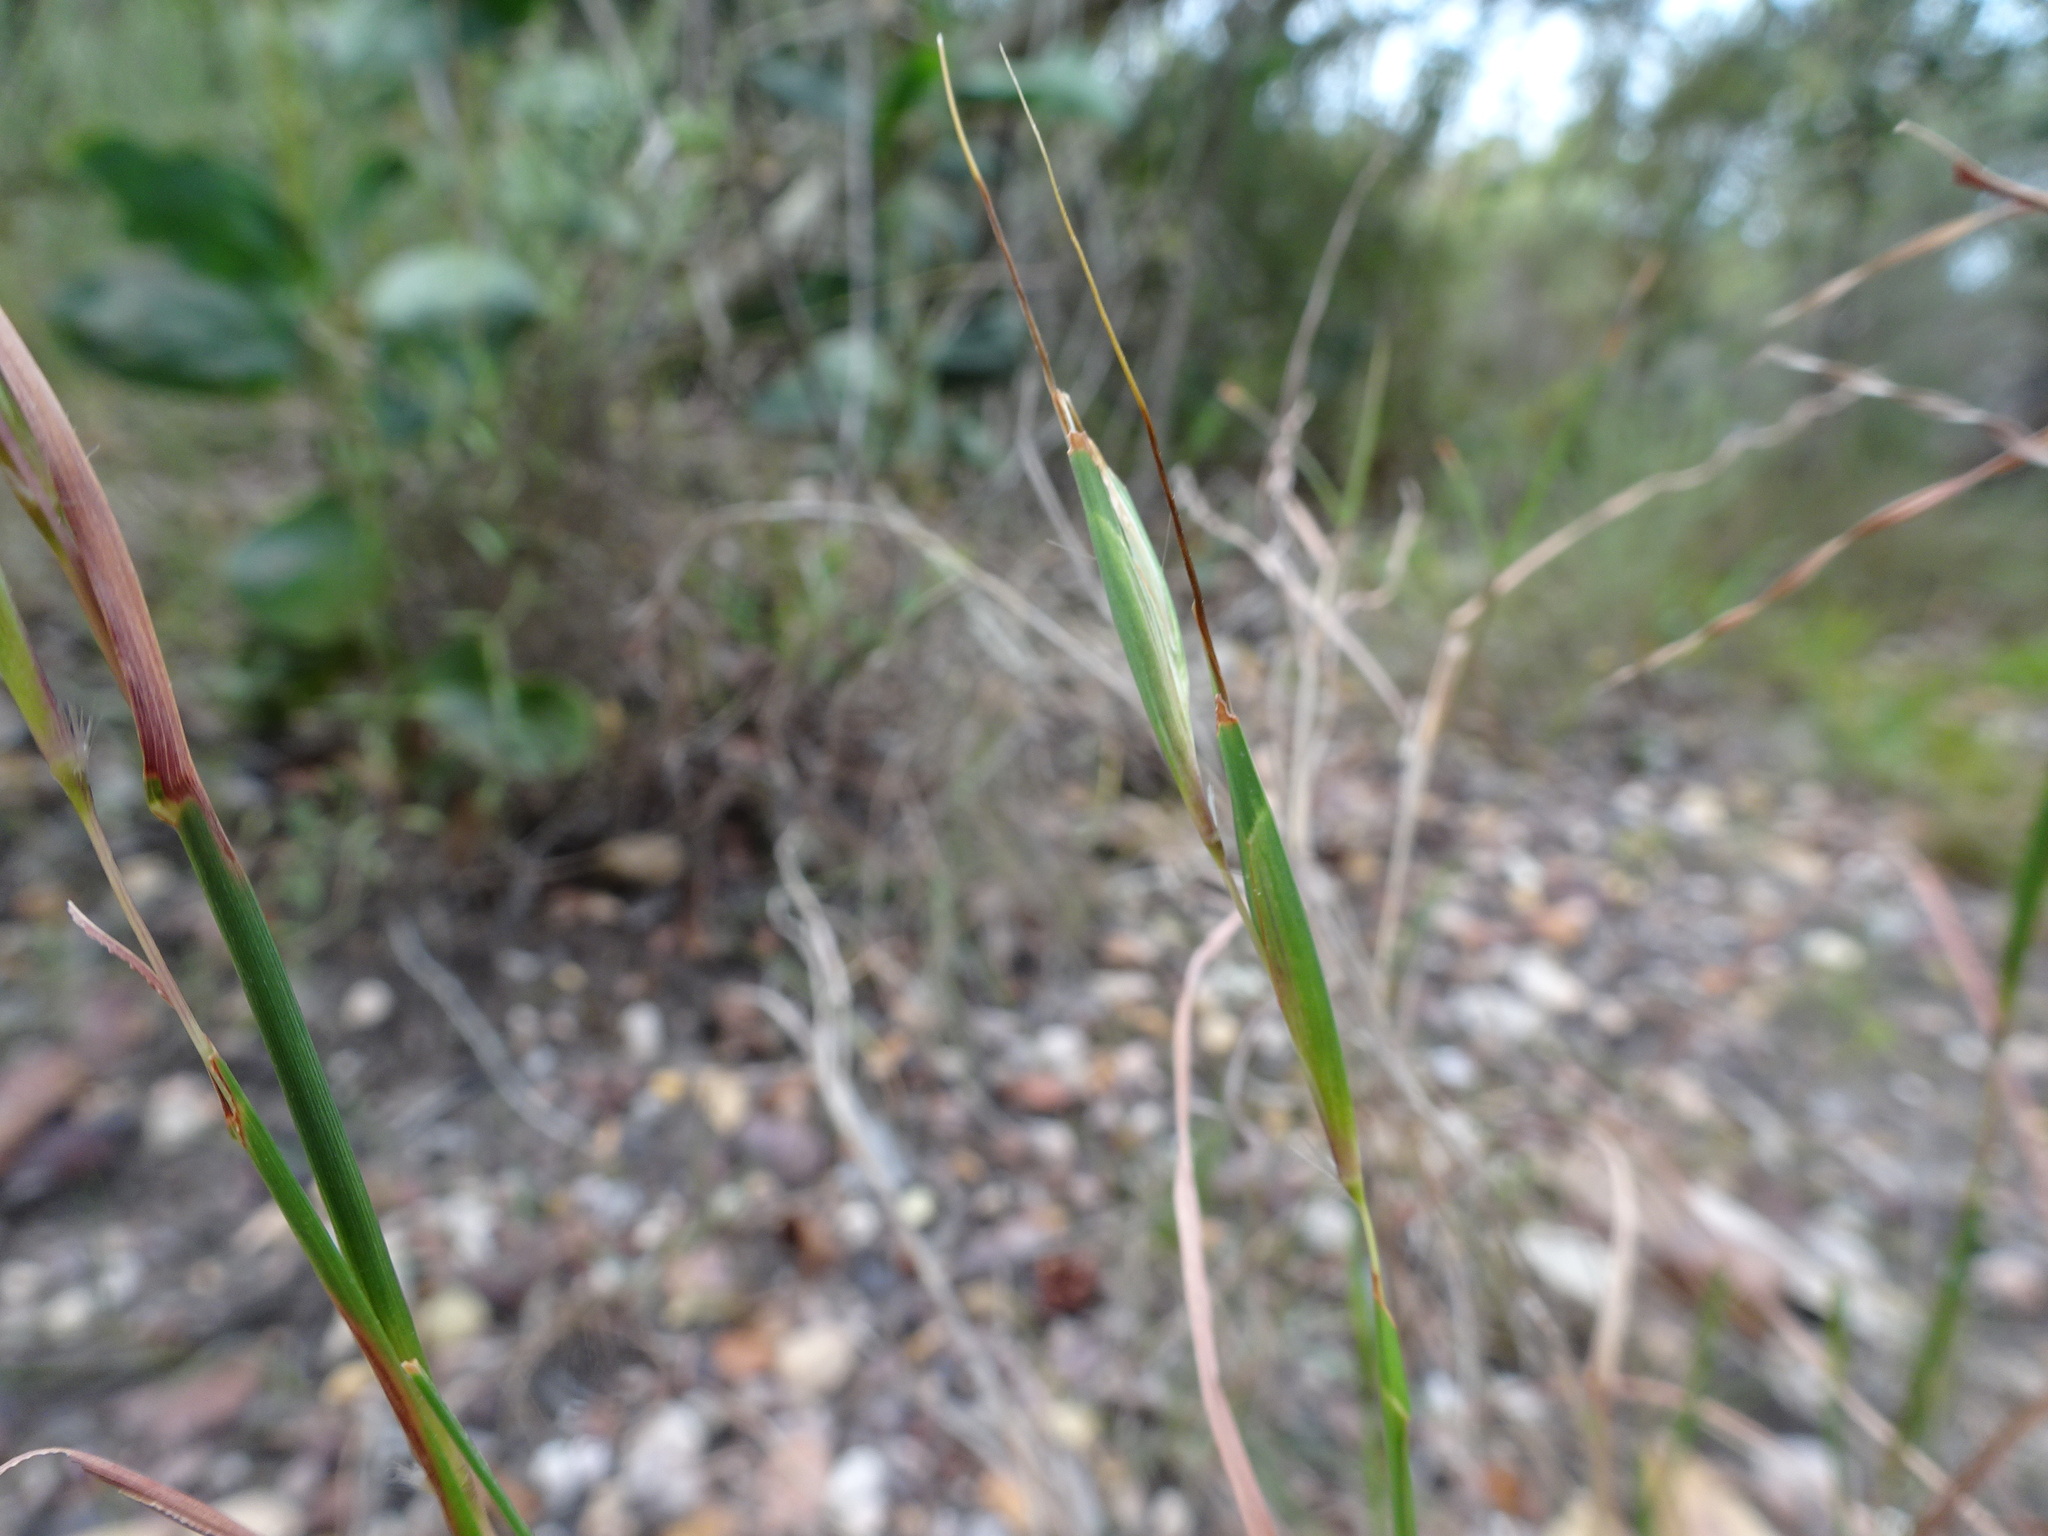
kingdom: Plantae
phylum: Tracheophyta
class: Liliopsida
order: Poales
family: Poaceae
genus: Themeda
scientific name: Themeda triandra
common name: Kangaroo grass
